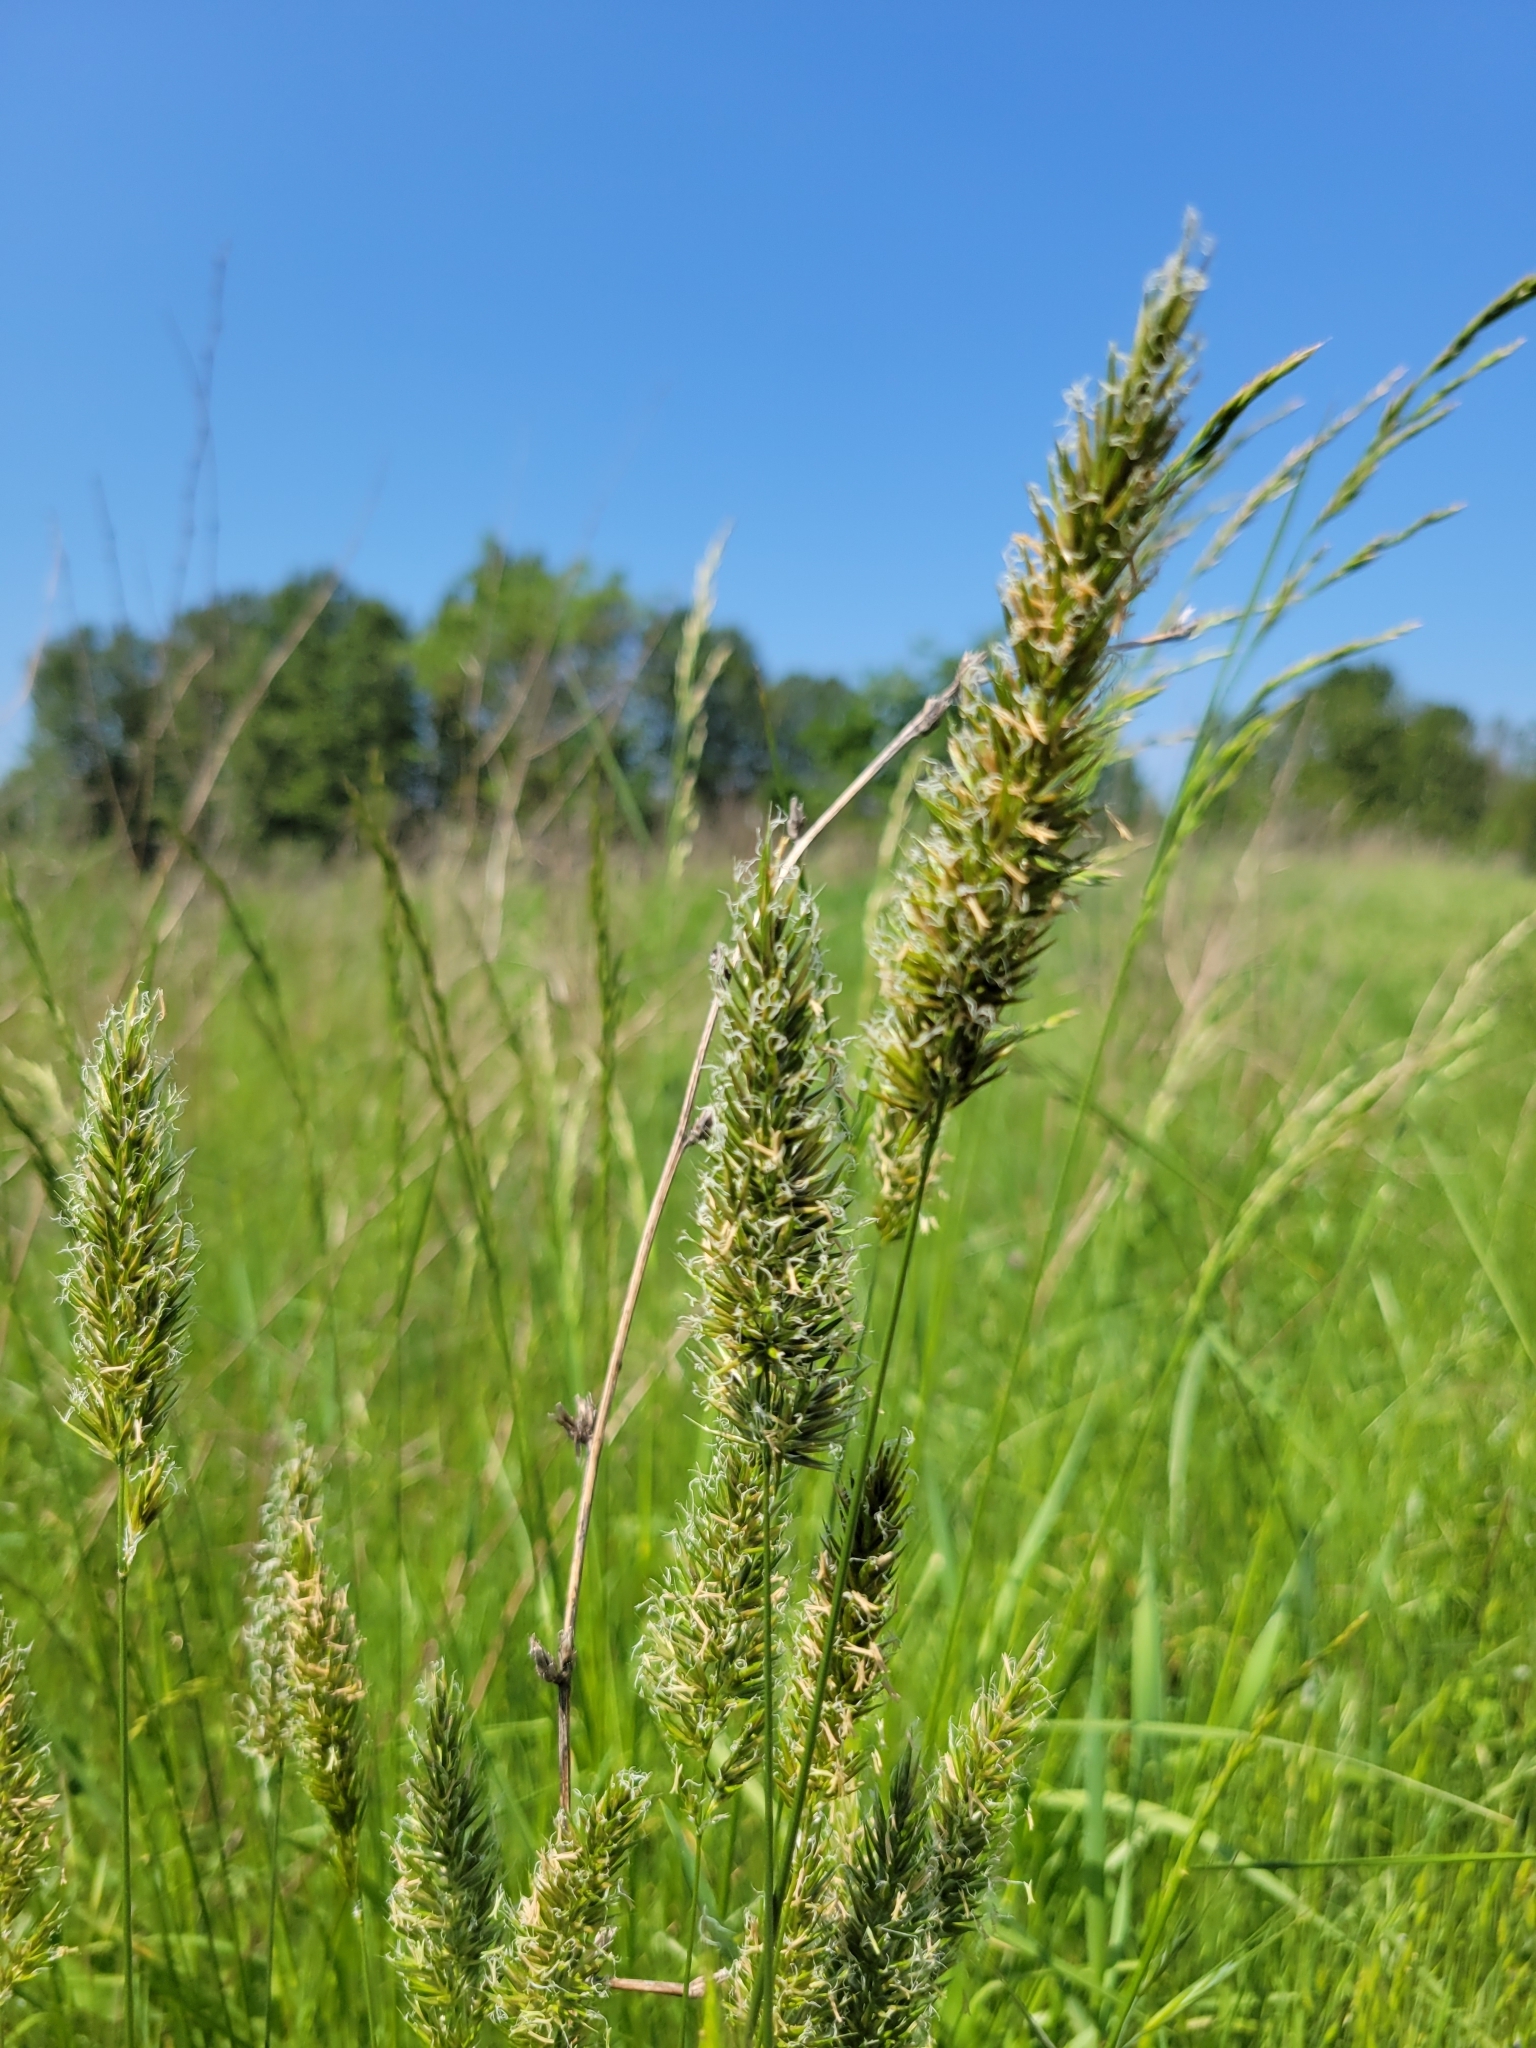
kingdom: Plantae
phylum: Tracheophyta
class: Liliopsida
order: Poales
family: Poaceae
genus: Anthoxanthum
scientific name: Anthoxanthum odoratum
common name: Sweet vernalgrass
